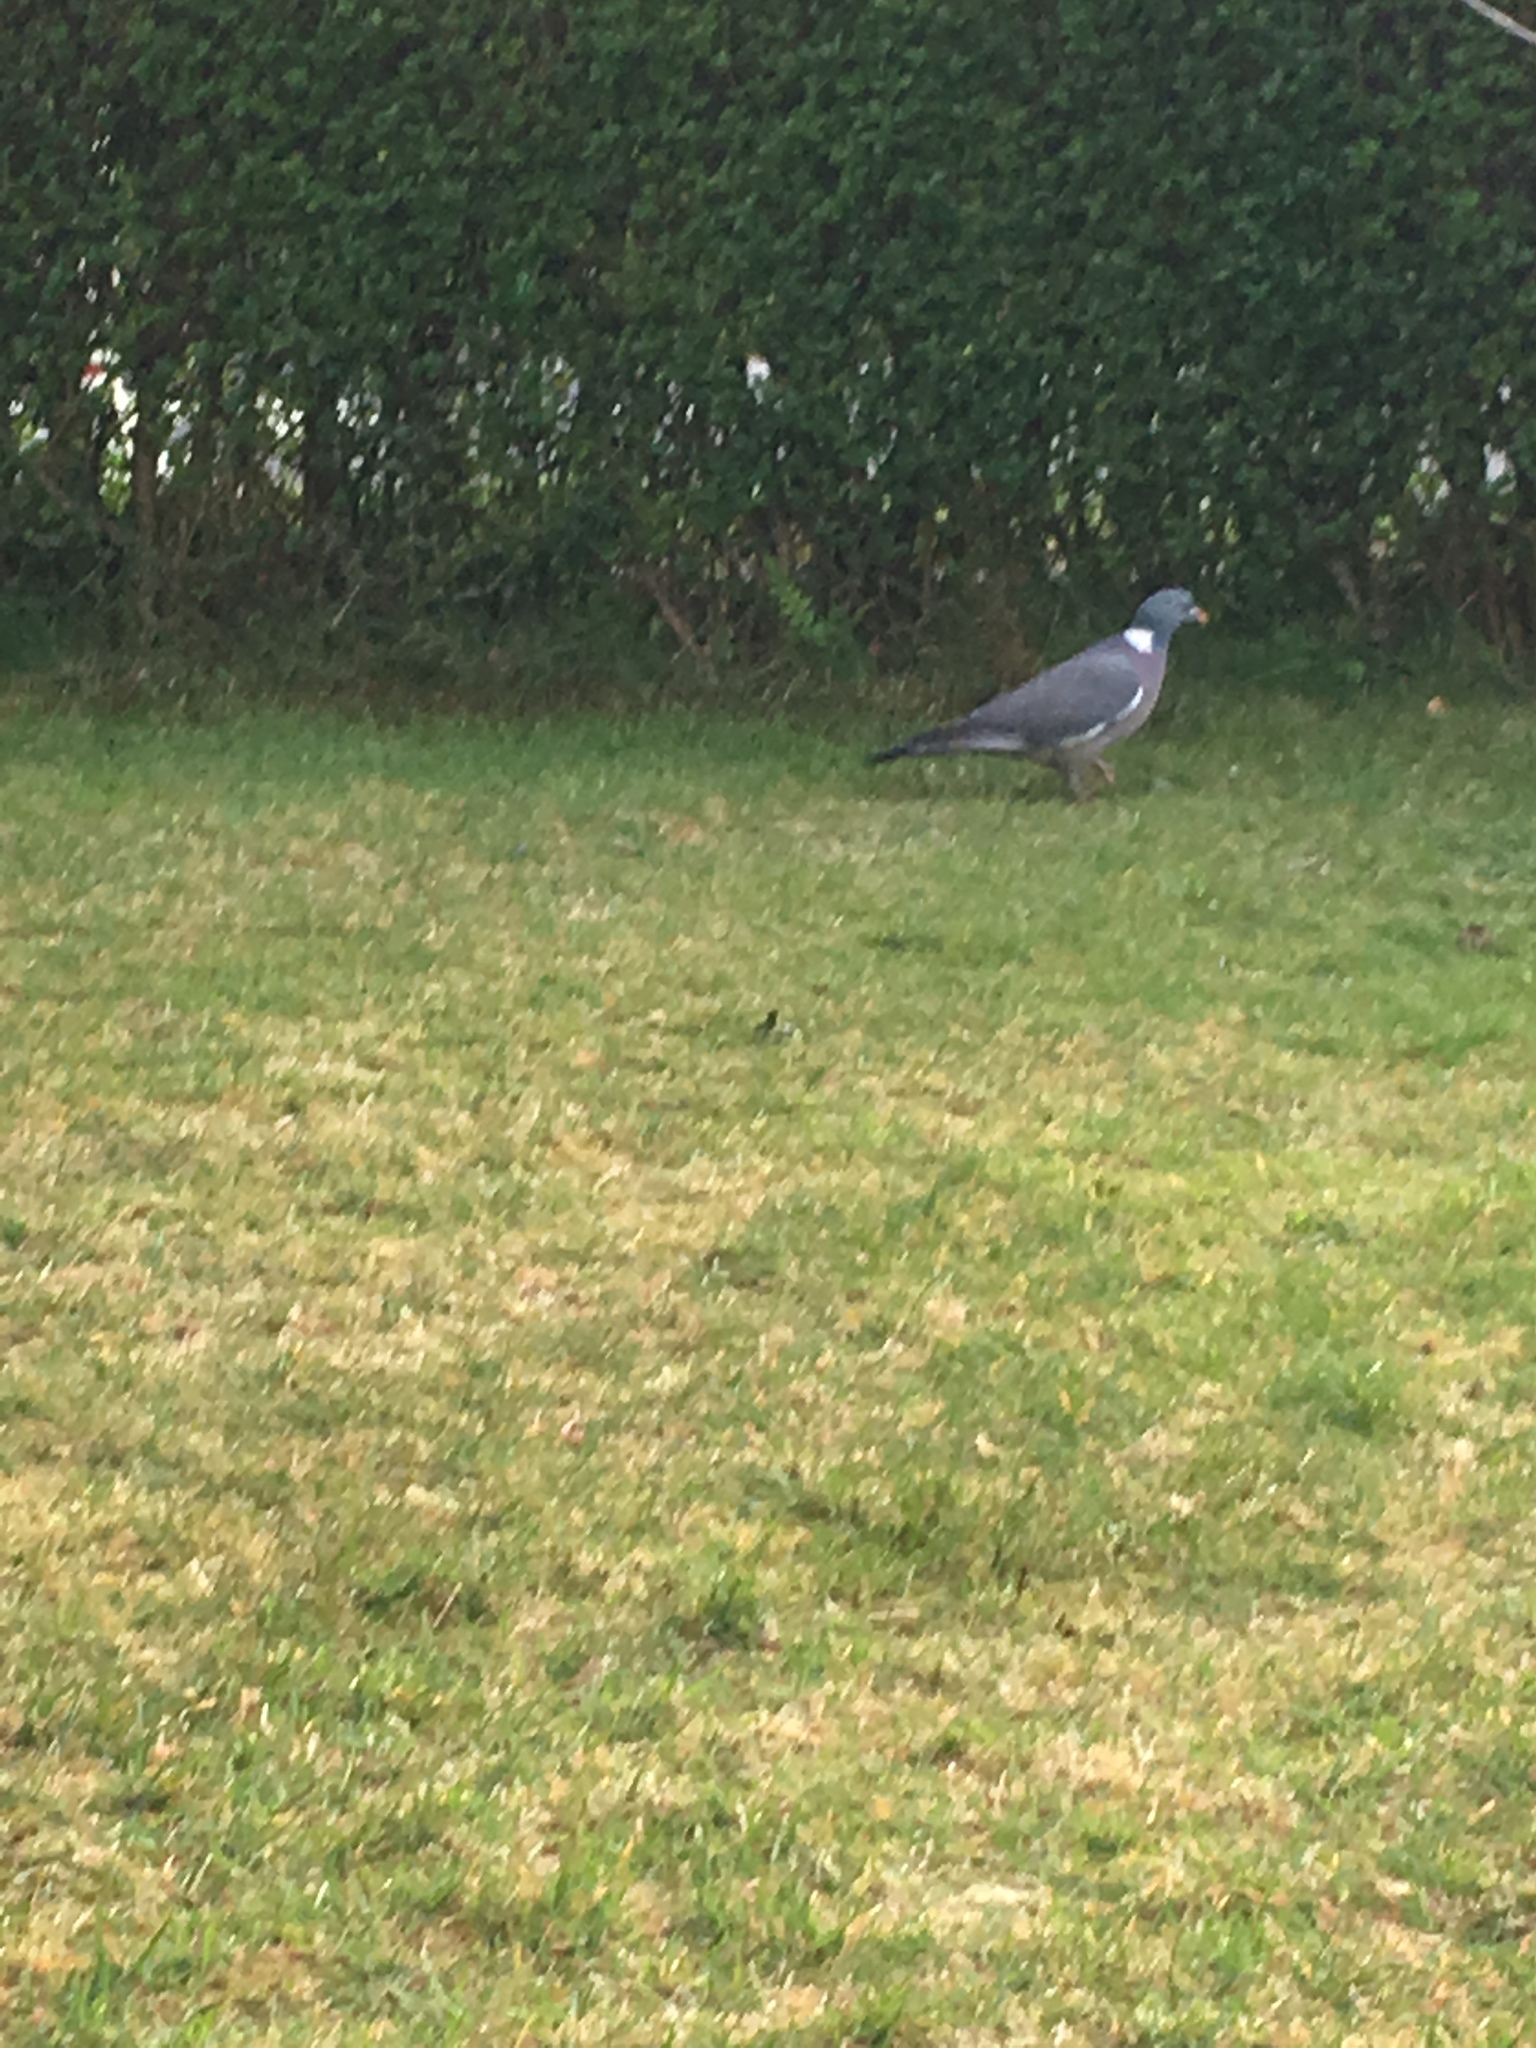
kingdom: Animalia
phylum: Chordata
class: Aves
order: Columbiformes
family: Columbidae
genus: Columba
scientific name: Columba palumbus
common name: Common wood pigeon
